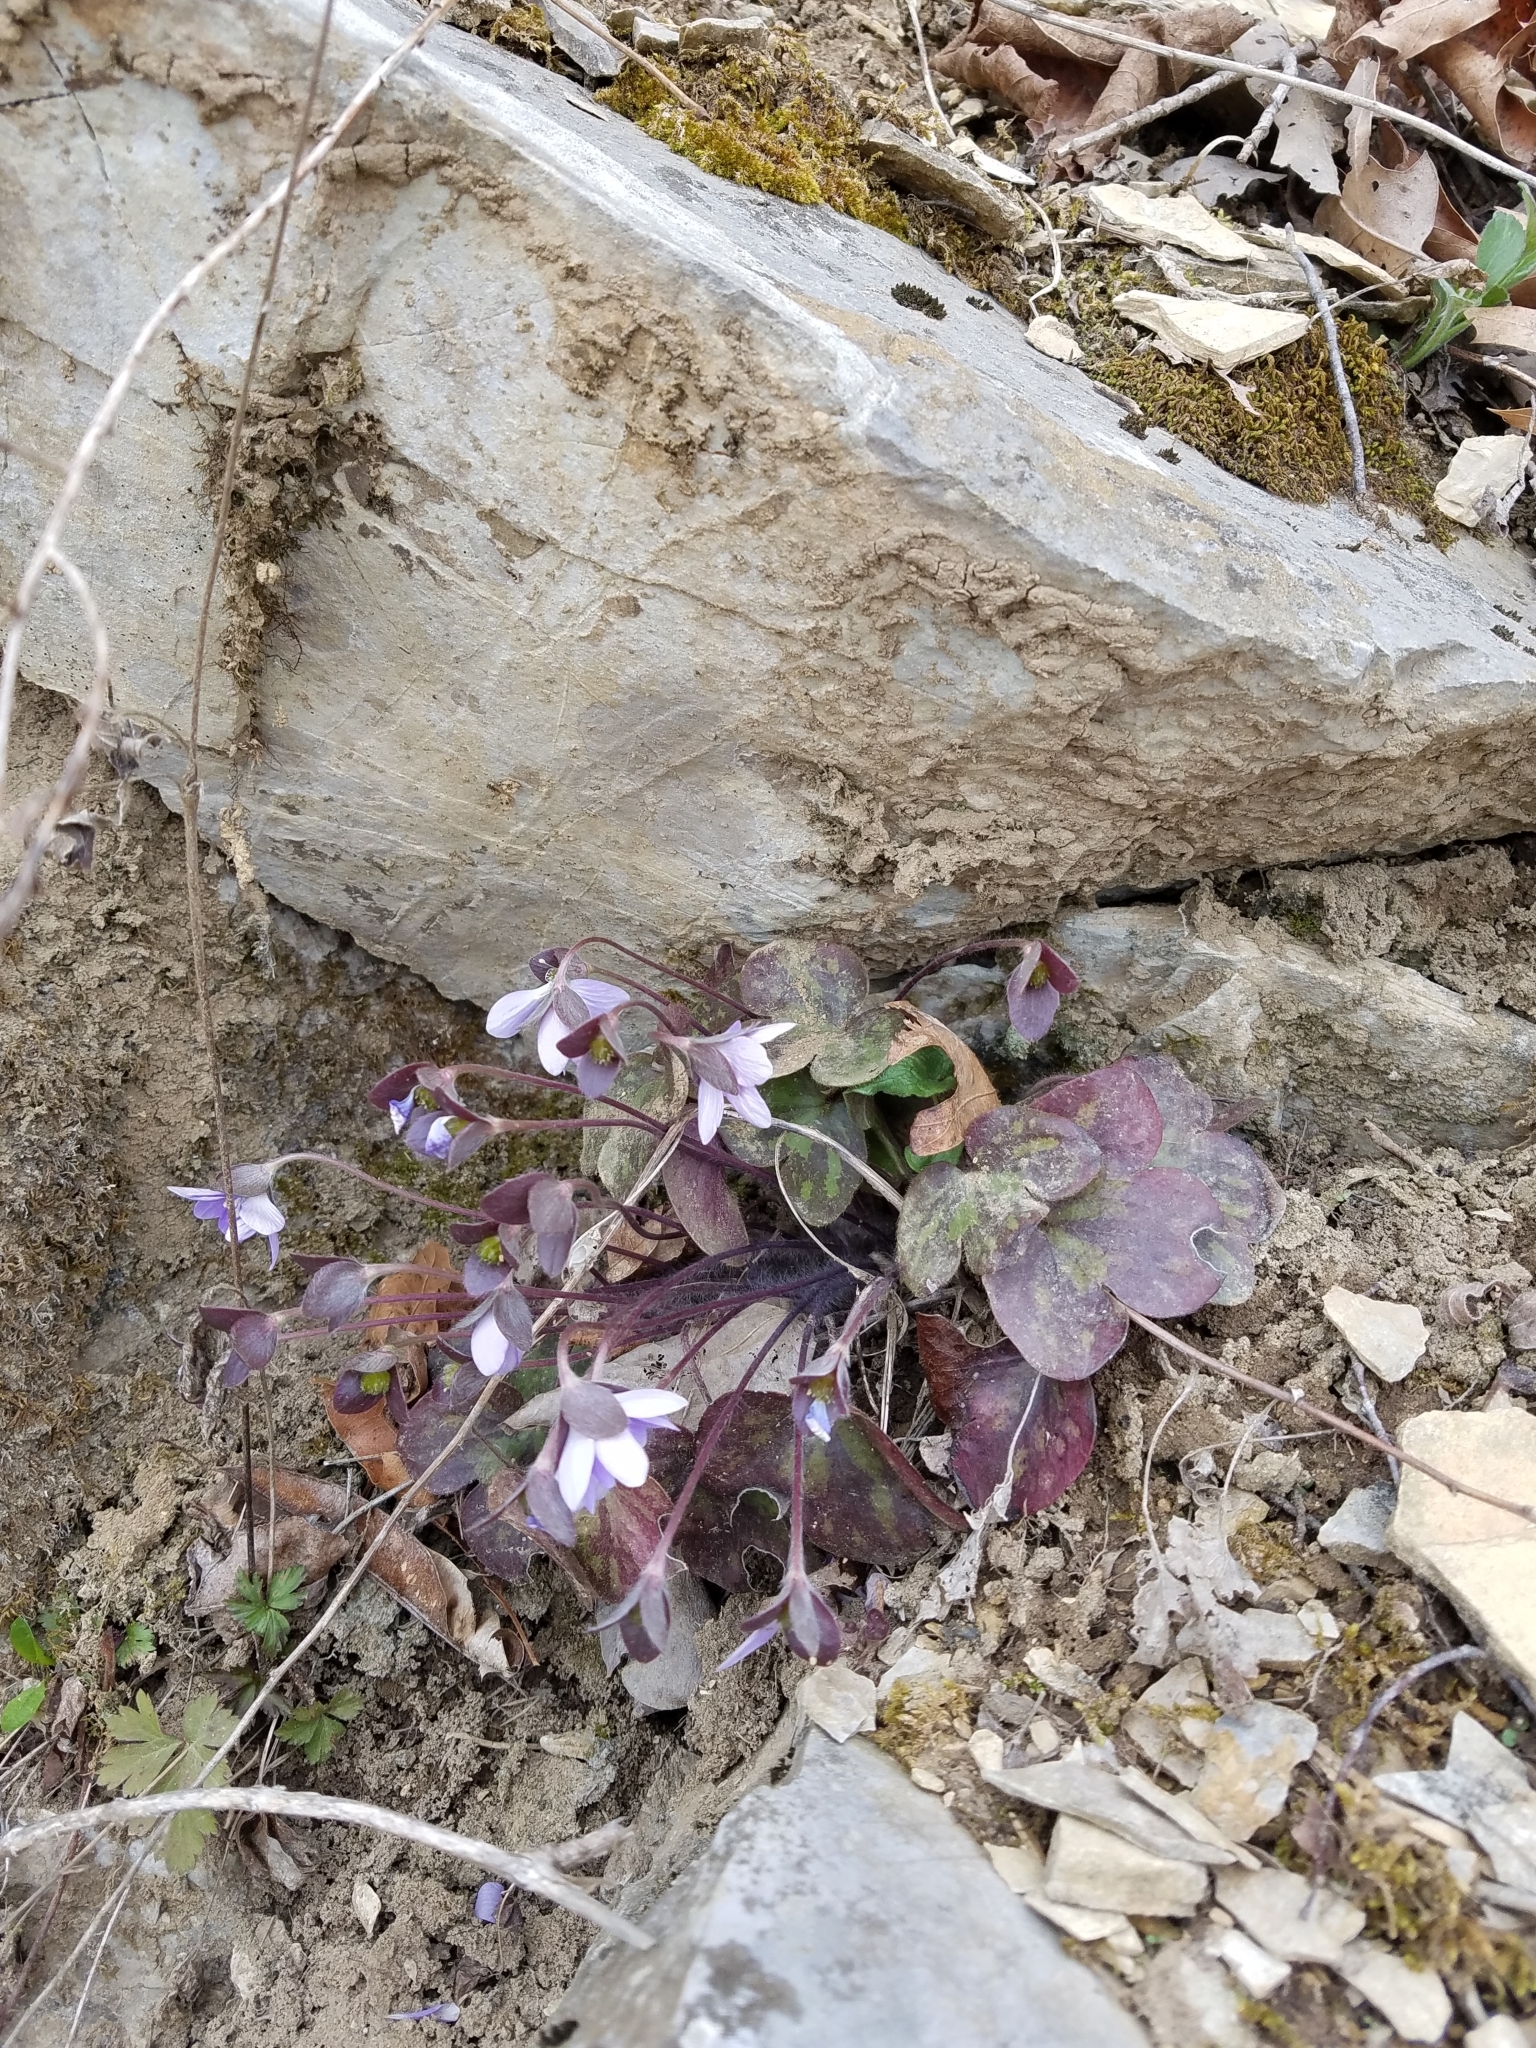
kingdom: Plantae
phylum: Tracheophyta
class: Magnoliopsida
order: Ranunculales
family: Ranunculaceae
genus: Hepatica
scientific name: Hepatica americana
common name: American hepatica
